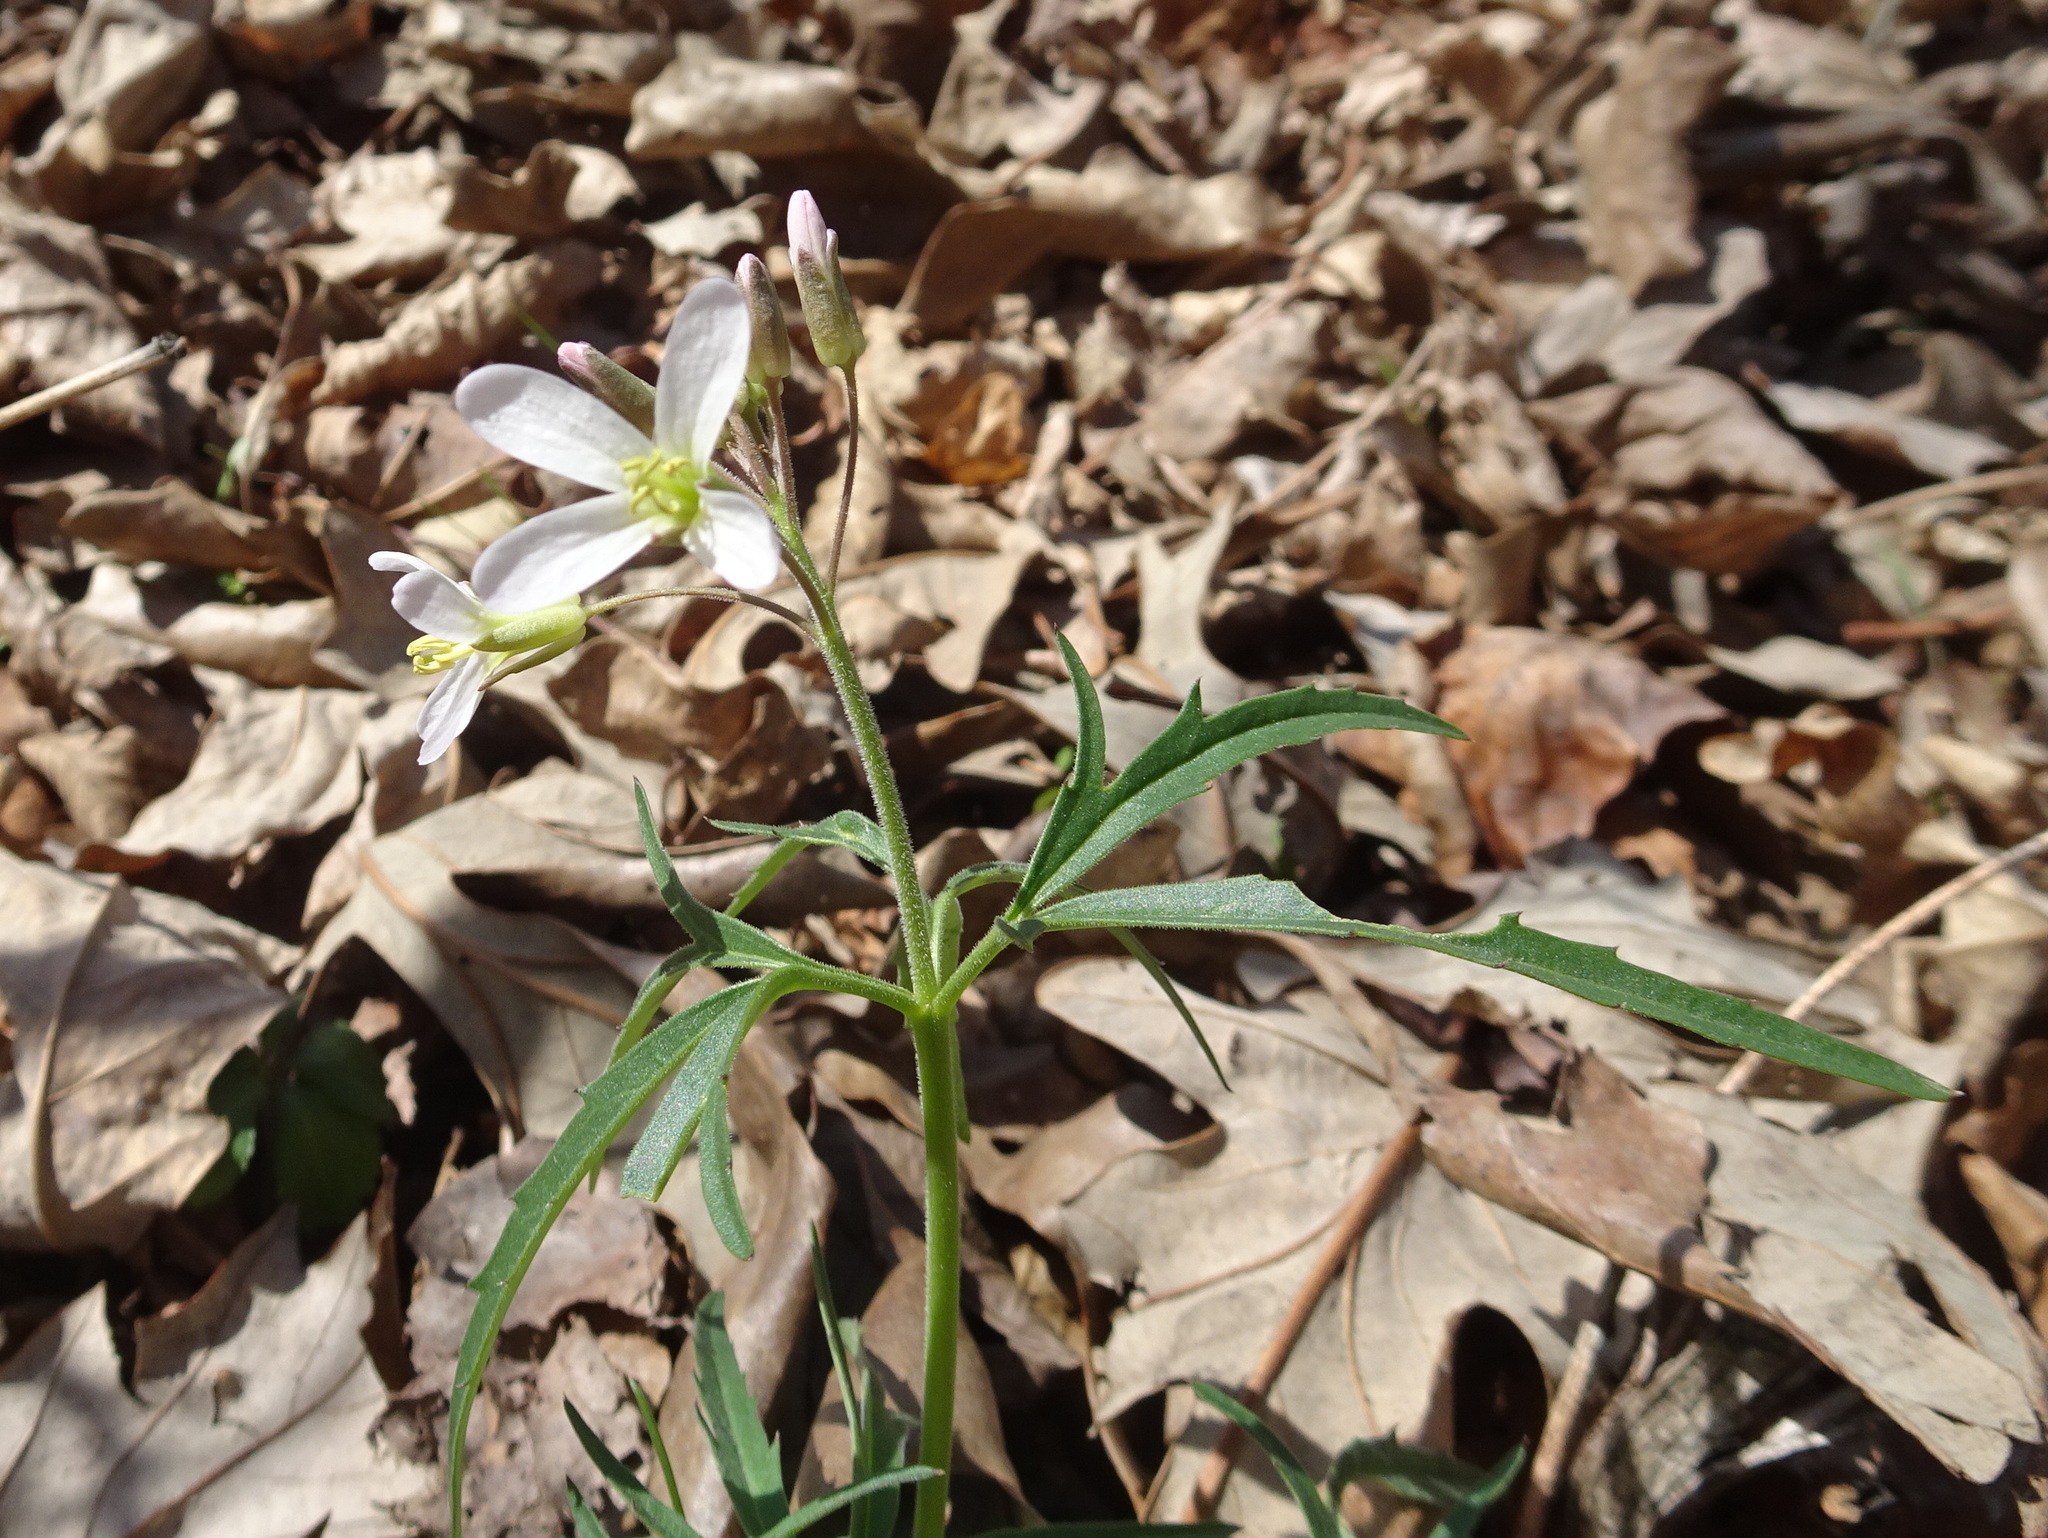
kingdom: Plantae
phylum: Tracheophyta
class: Magnoliopsida
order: Brassicales
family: Brassicaceae
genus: Cardamine
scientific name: Cardamine concatenata
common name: Cut-leaf toothcup
